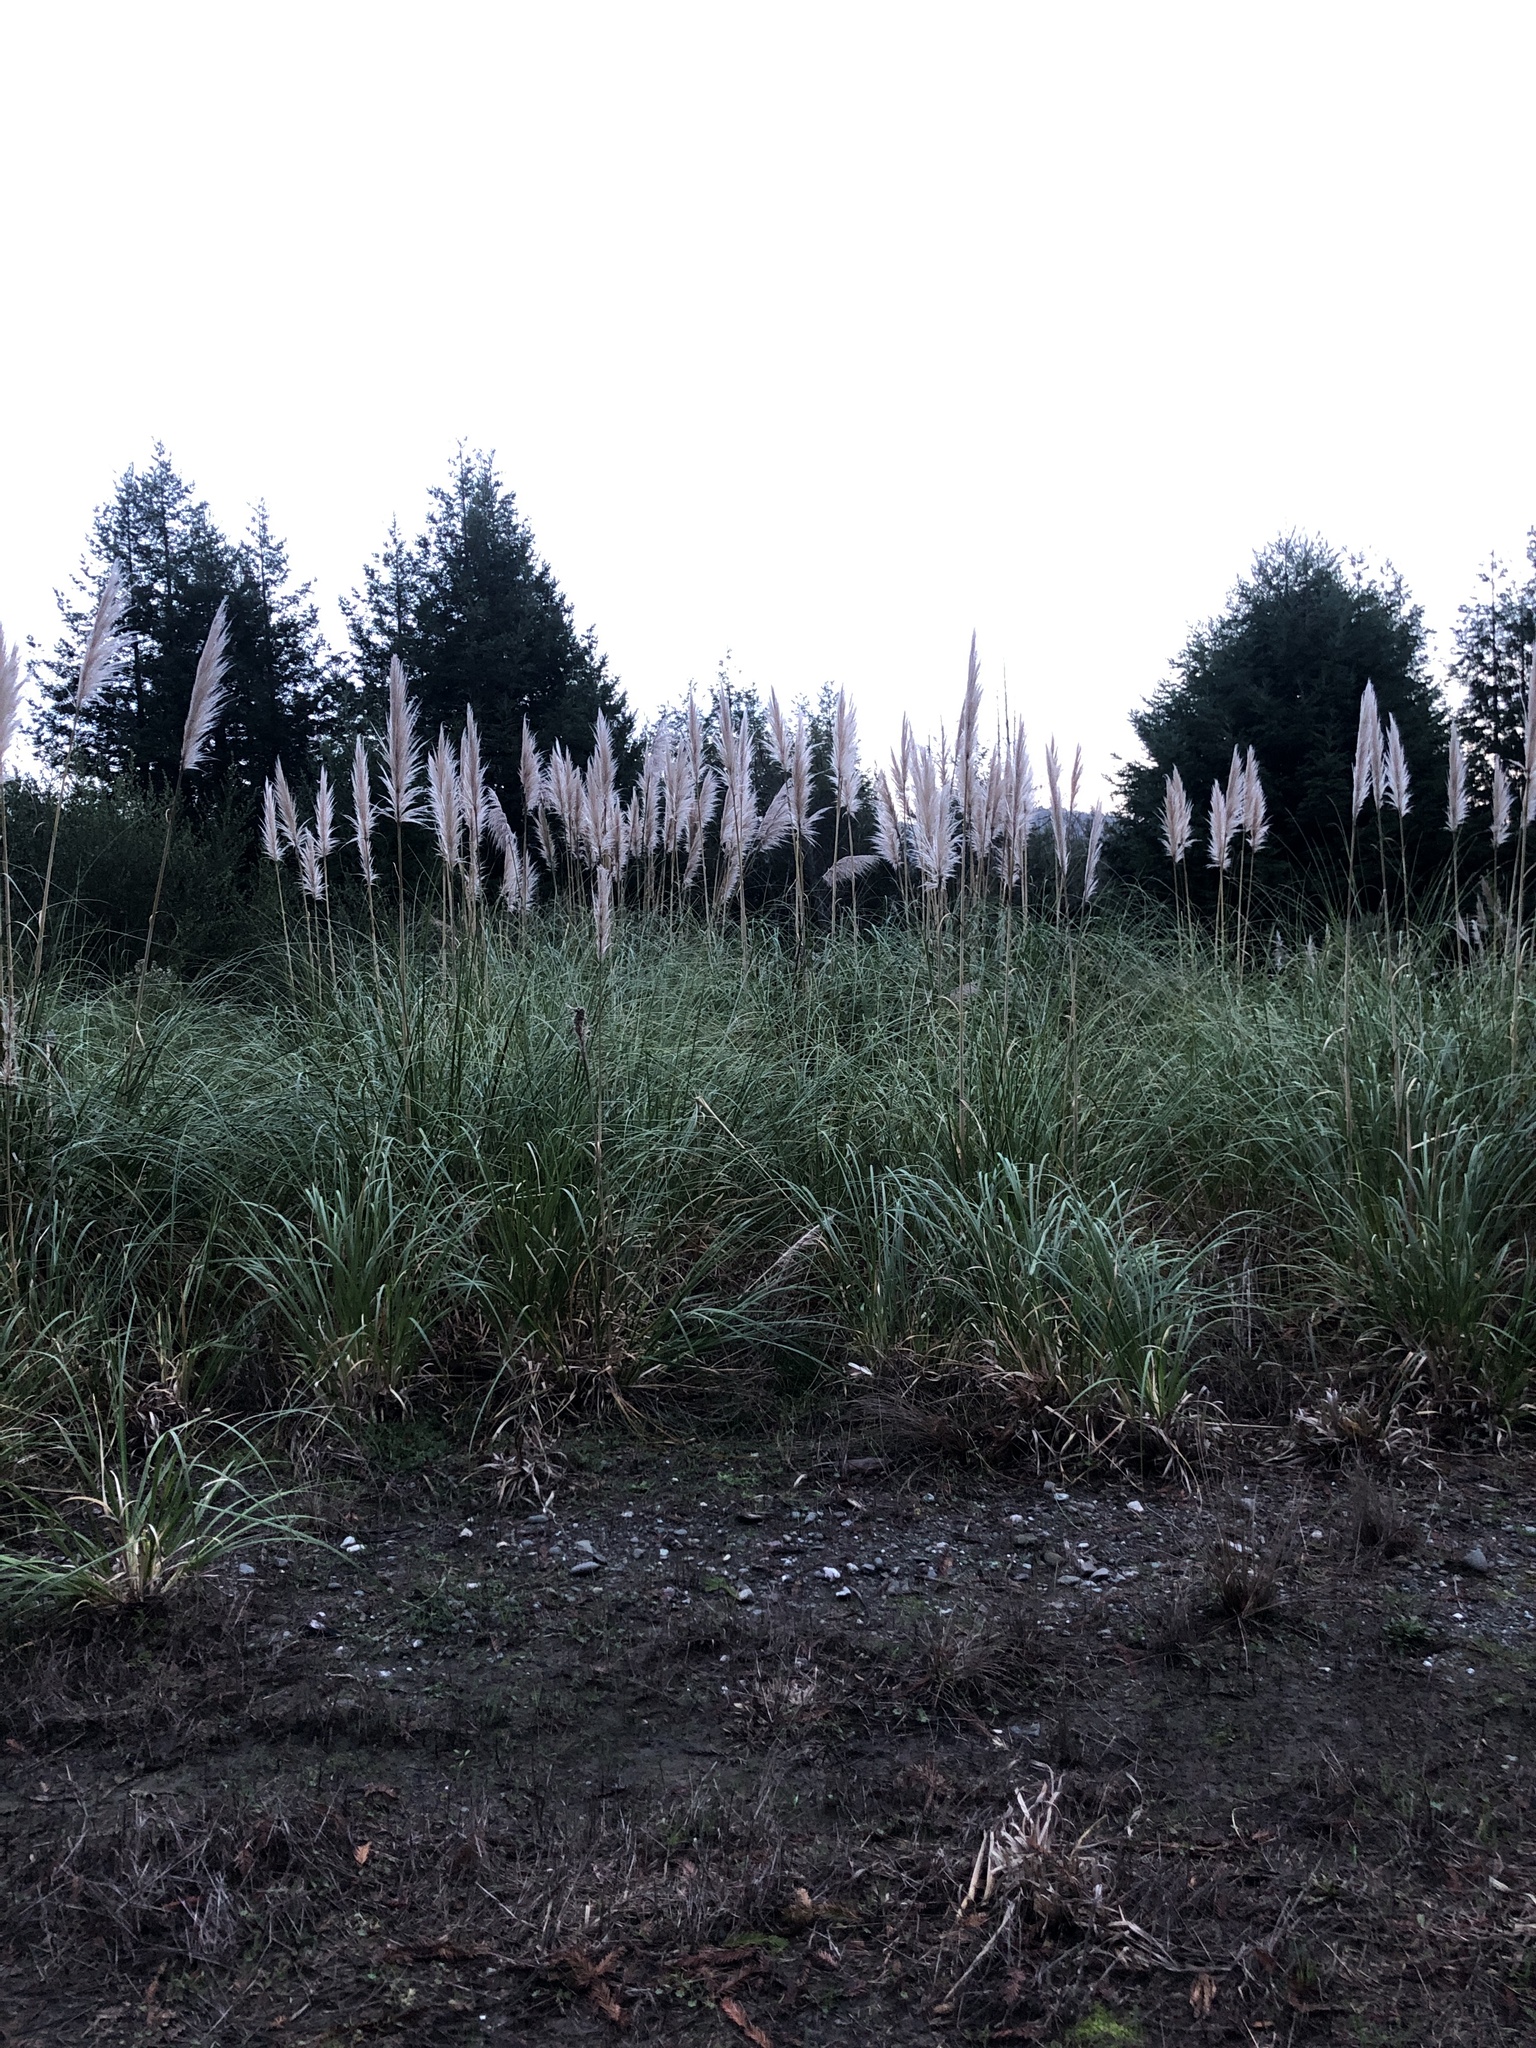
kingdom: Plantae
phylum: Tracheophyta
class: Liliopsida
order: Poales
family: Poaceae
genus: Cortaderia
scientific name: Cortaderia selloana
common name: Uruguayan pampas grass
